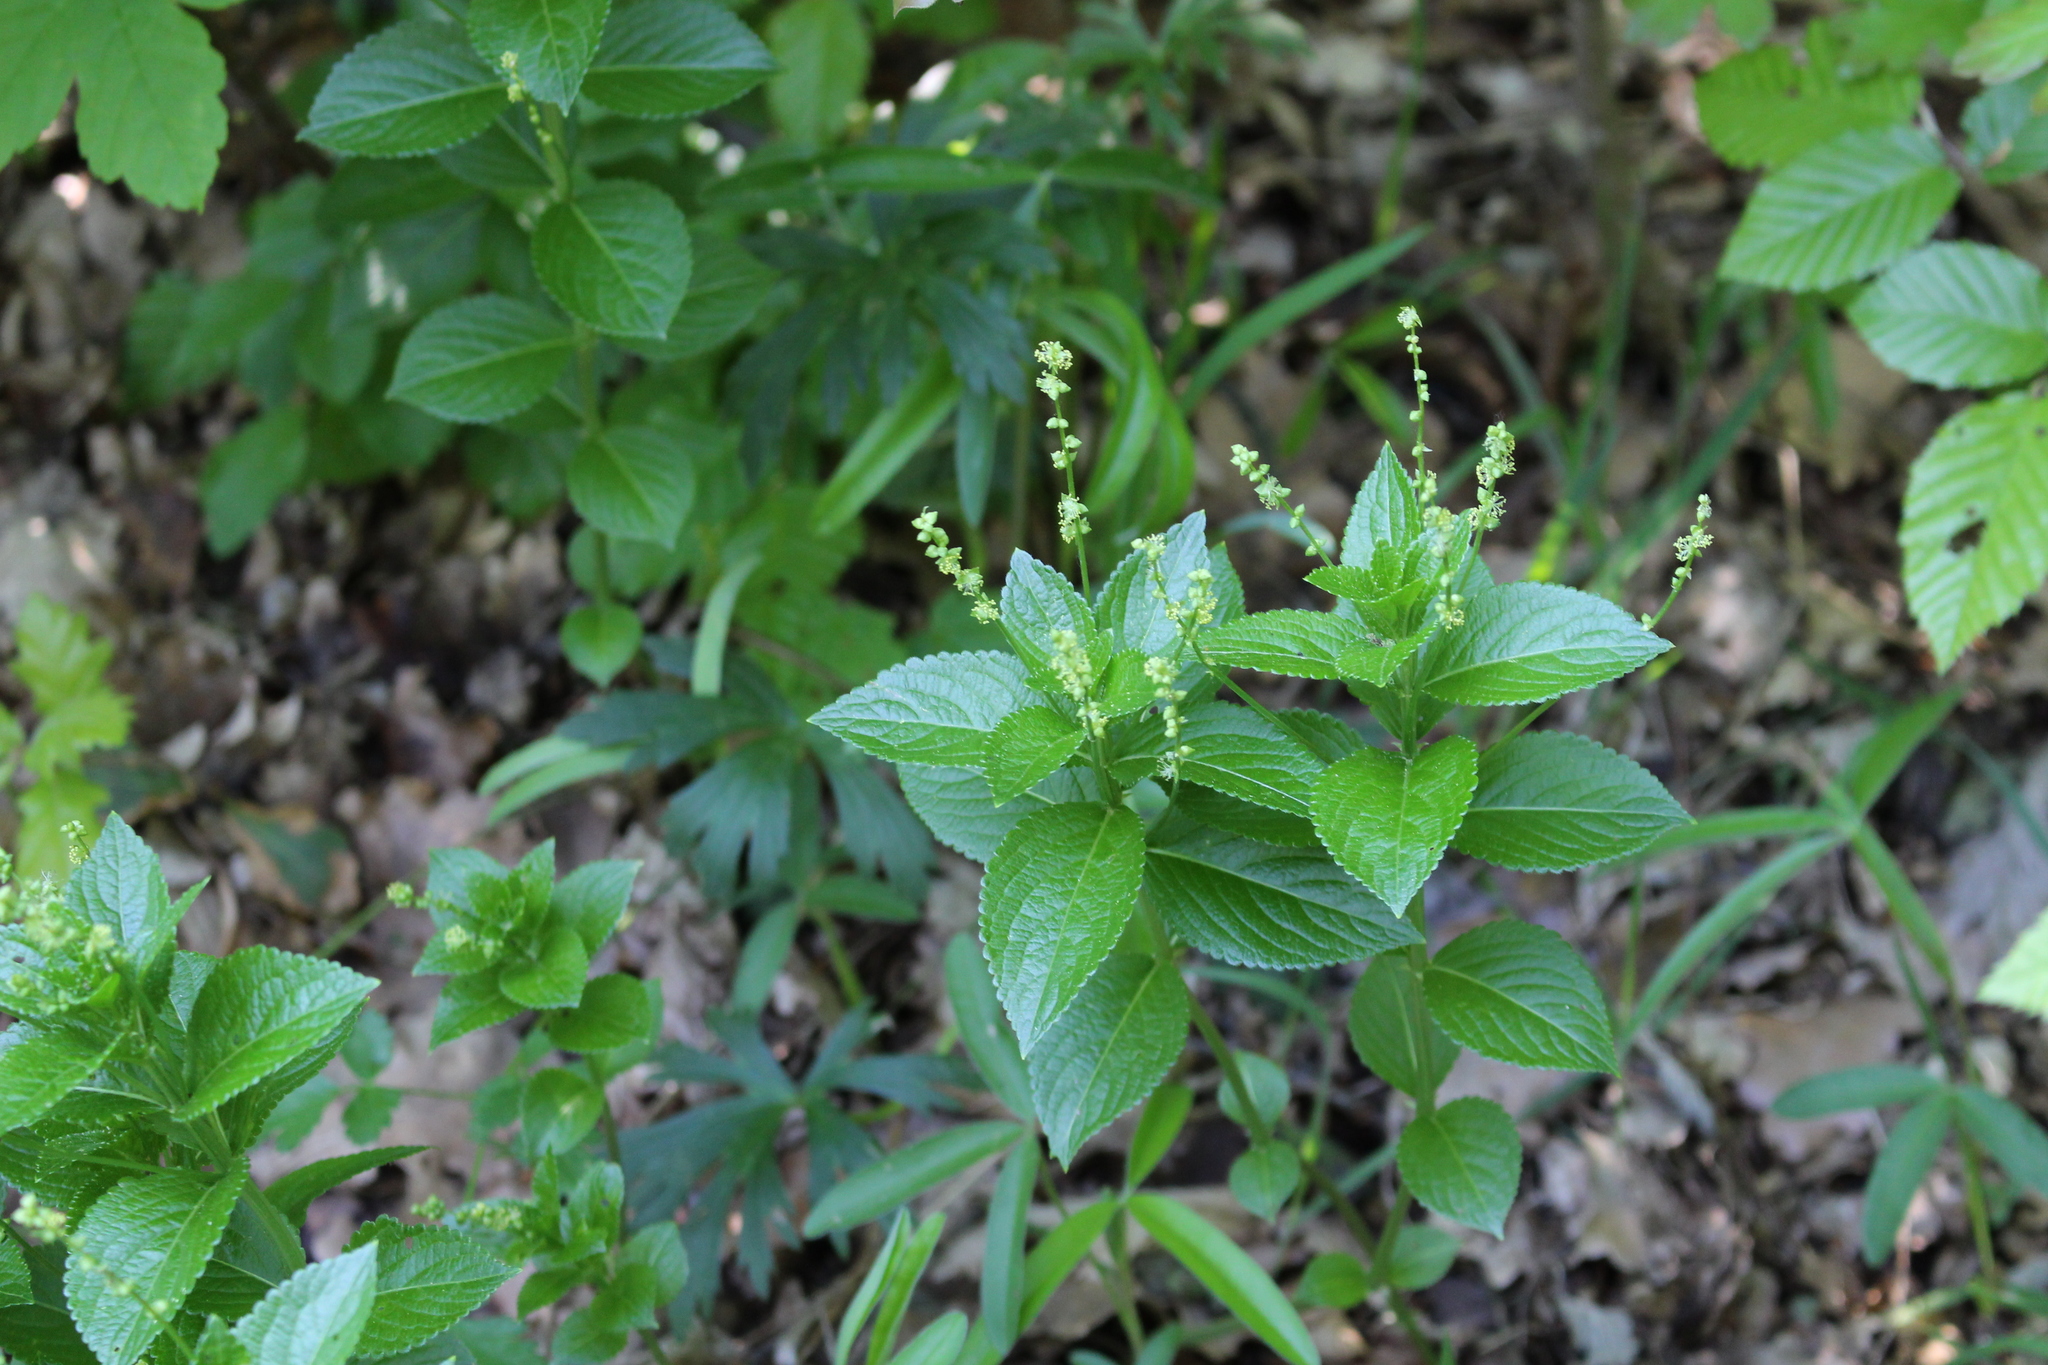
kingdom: Plantae
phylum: Tracheophyta
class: Magnoliopsida
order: Malpighiales
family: Euphorbiaceae
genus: Mercurialis
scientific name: Mercurialis ovata
